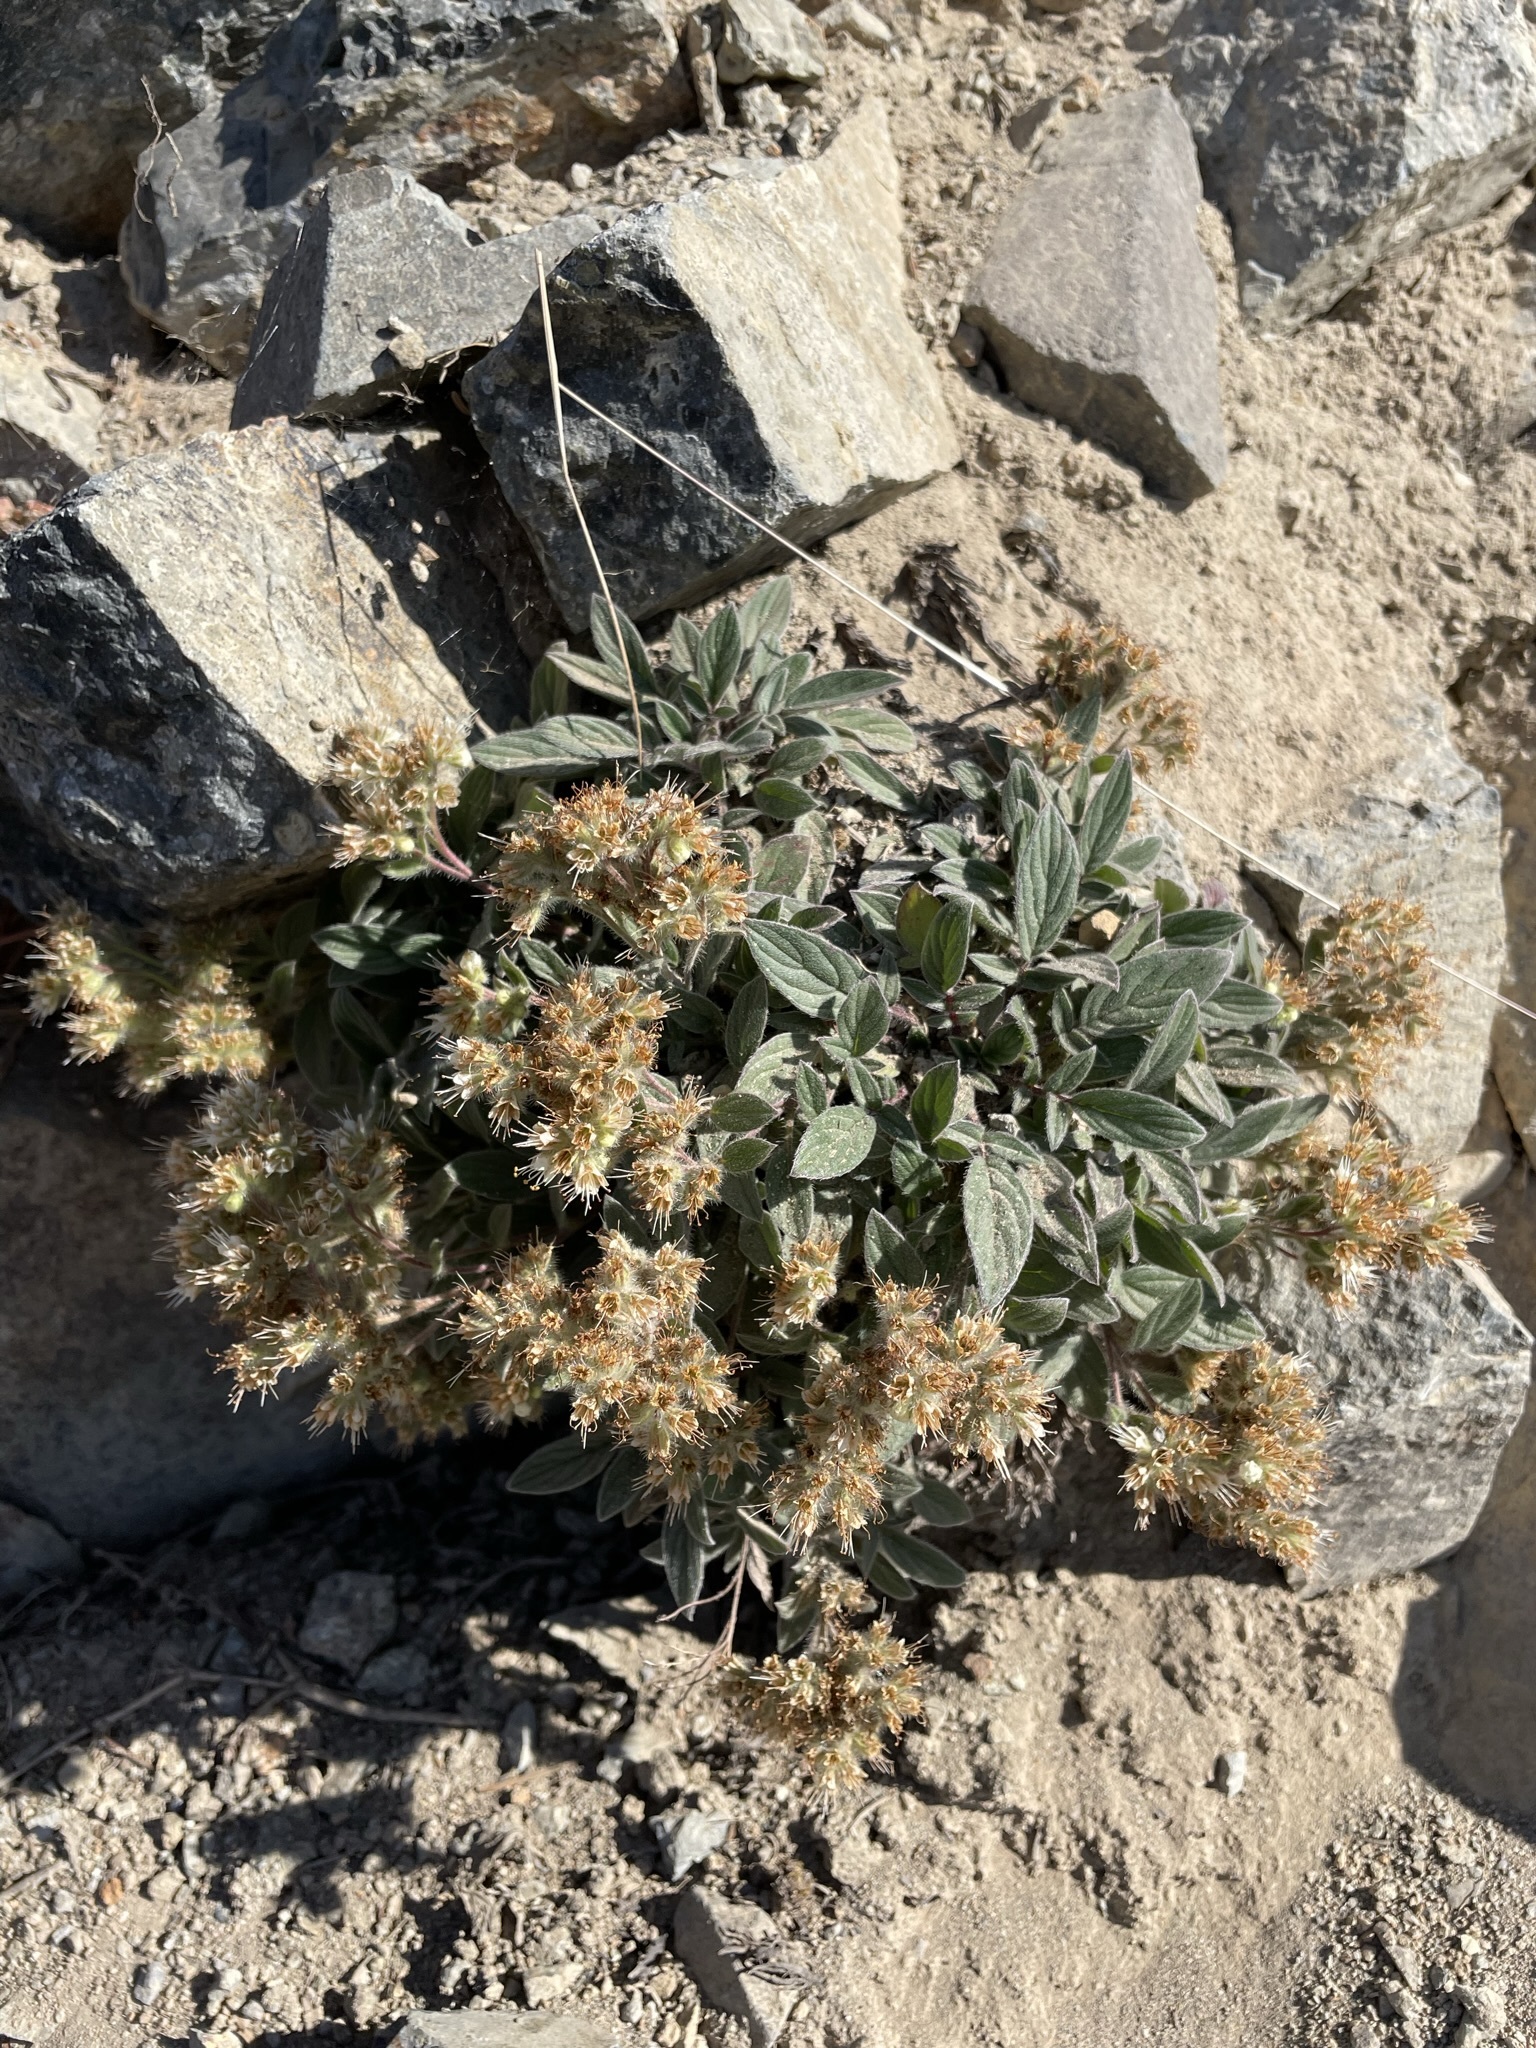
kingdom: Plantae
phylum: Tracheophyta
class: Magnoliopsida
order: Boraginales
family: Hydrophyllaceae
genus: Phacelia
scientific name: Phacelia hastata
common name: Silver-leaved phacelia
